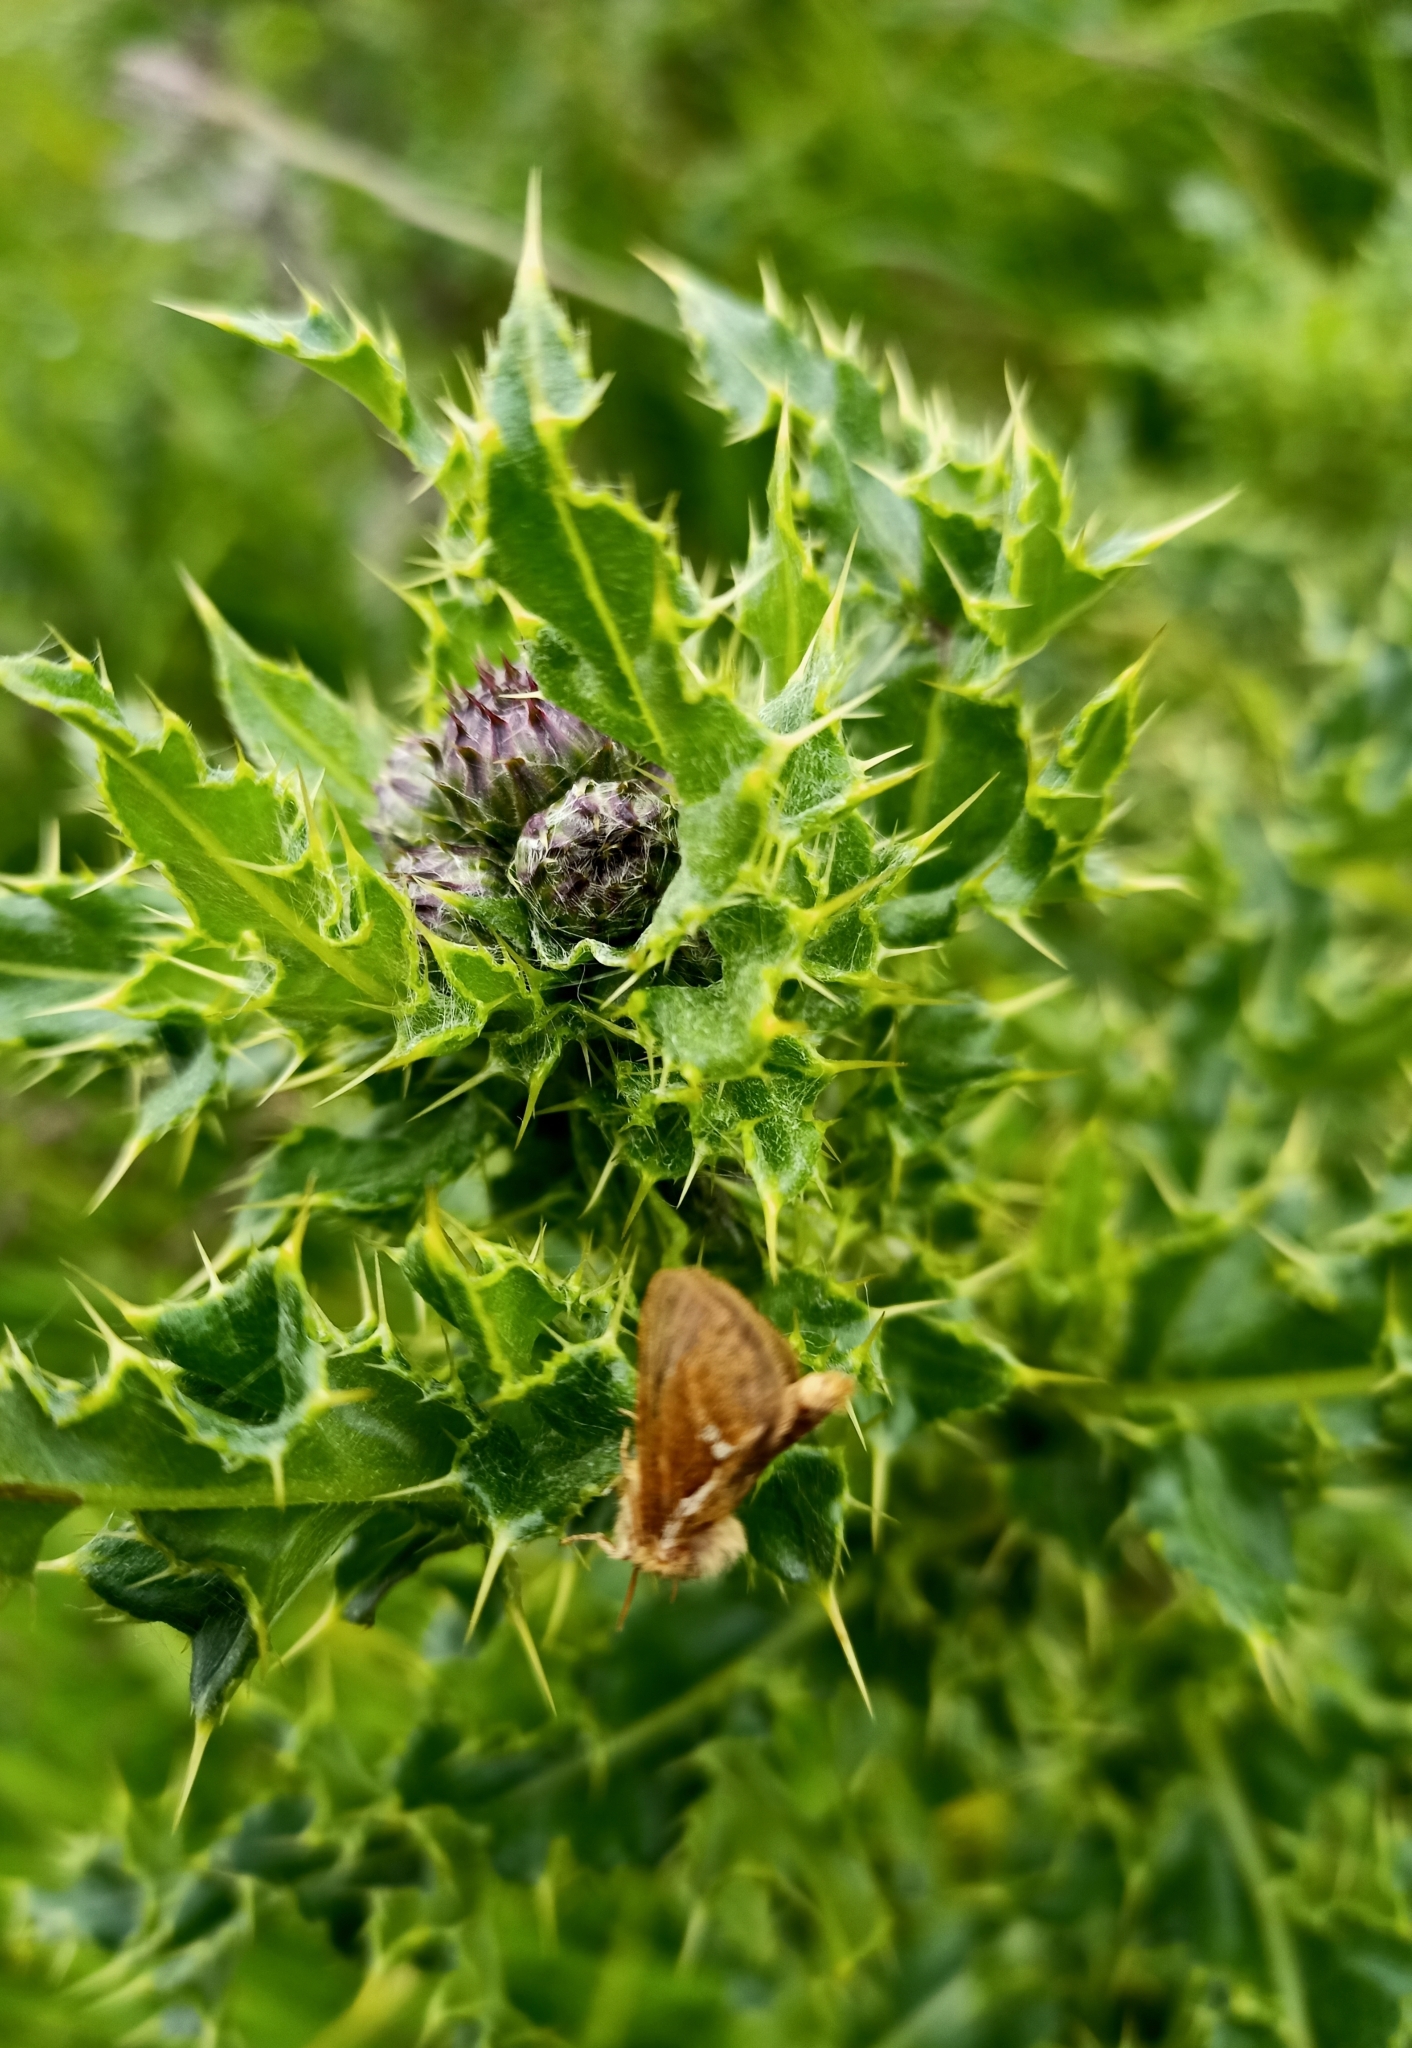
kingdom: Animalia
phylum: Arthropoda
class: Insecta
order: Lepidoptera
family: Hepialidae
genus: Korscheltellus
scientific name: Korscheltellus lupulina
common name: Common swift
